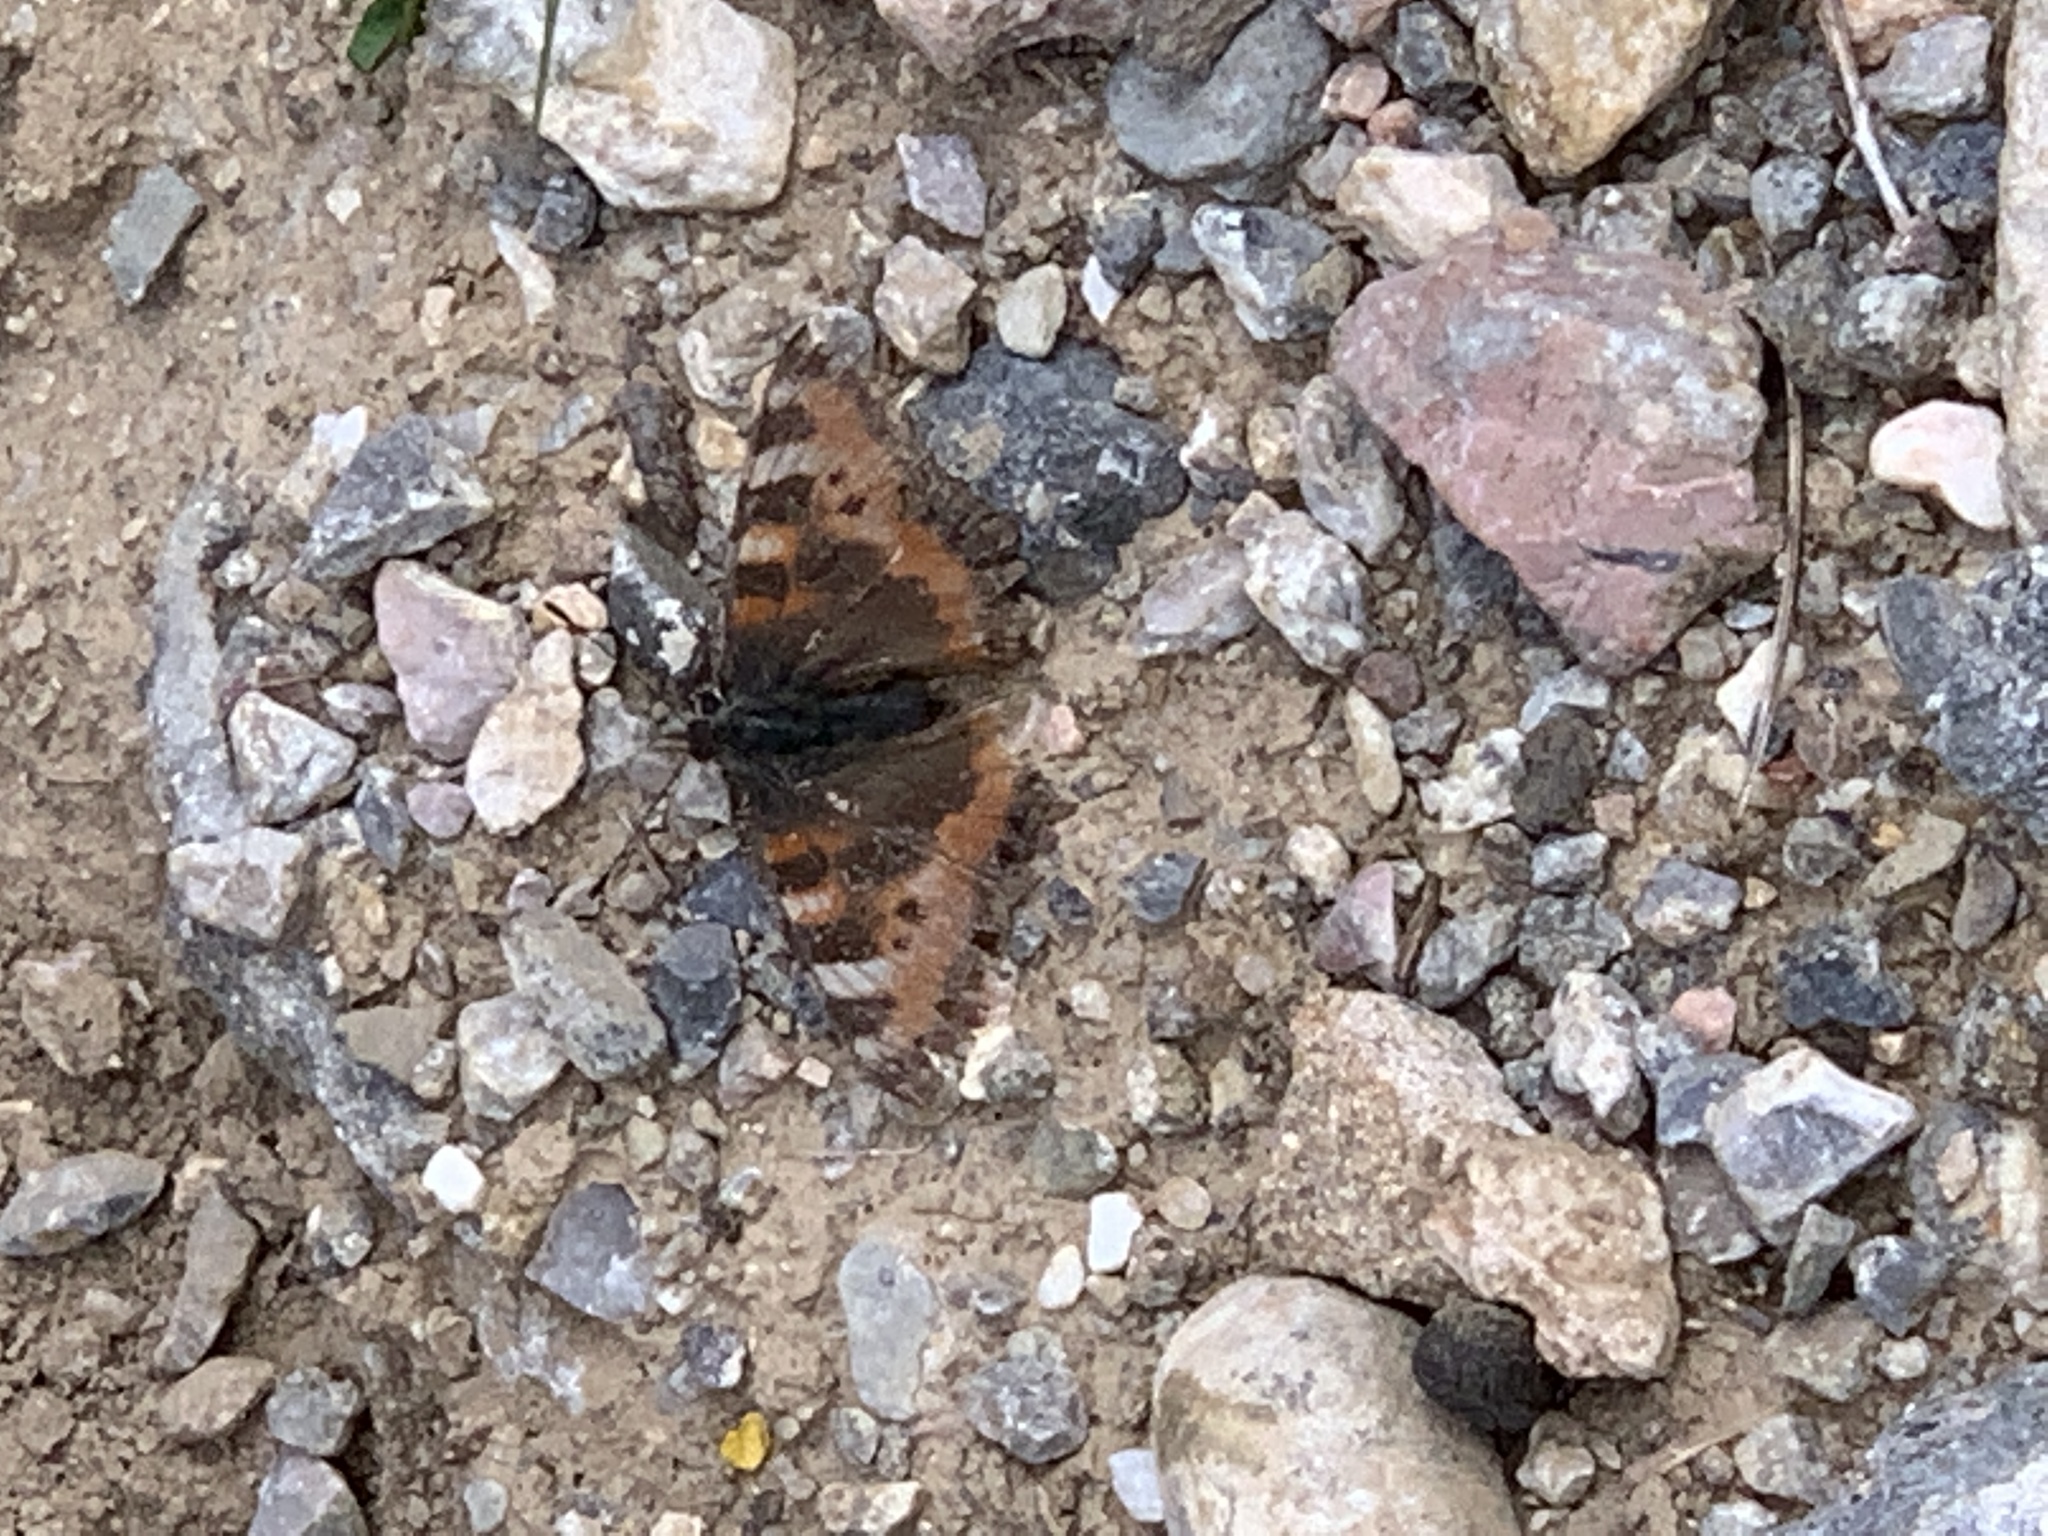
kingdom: Animalia
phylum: Arthropoda
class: Insecta
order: Lepidoptera
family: Nymphalidae
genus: Aglais
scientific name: Aglais ladakensis
